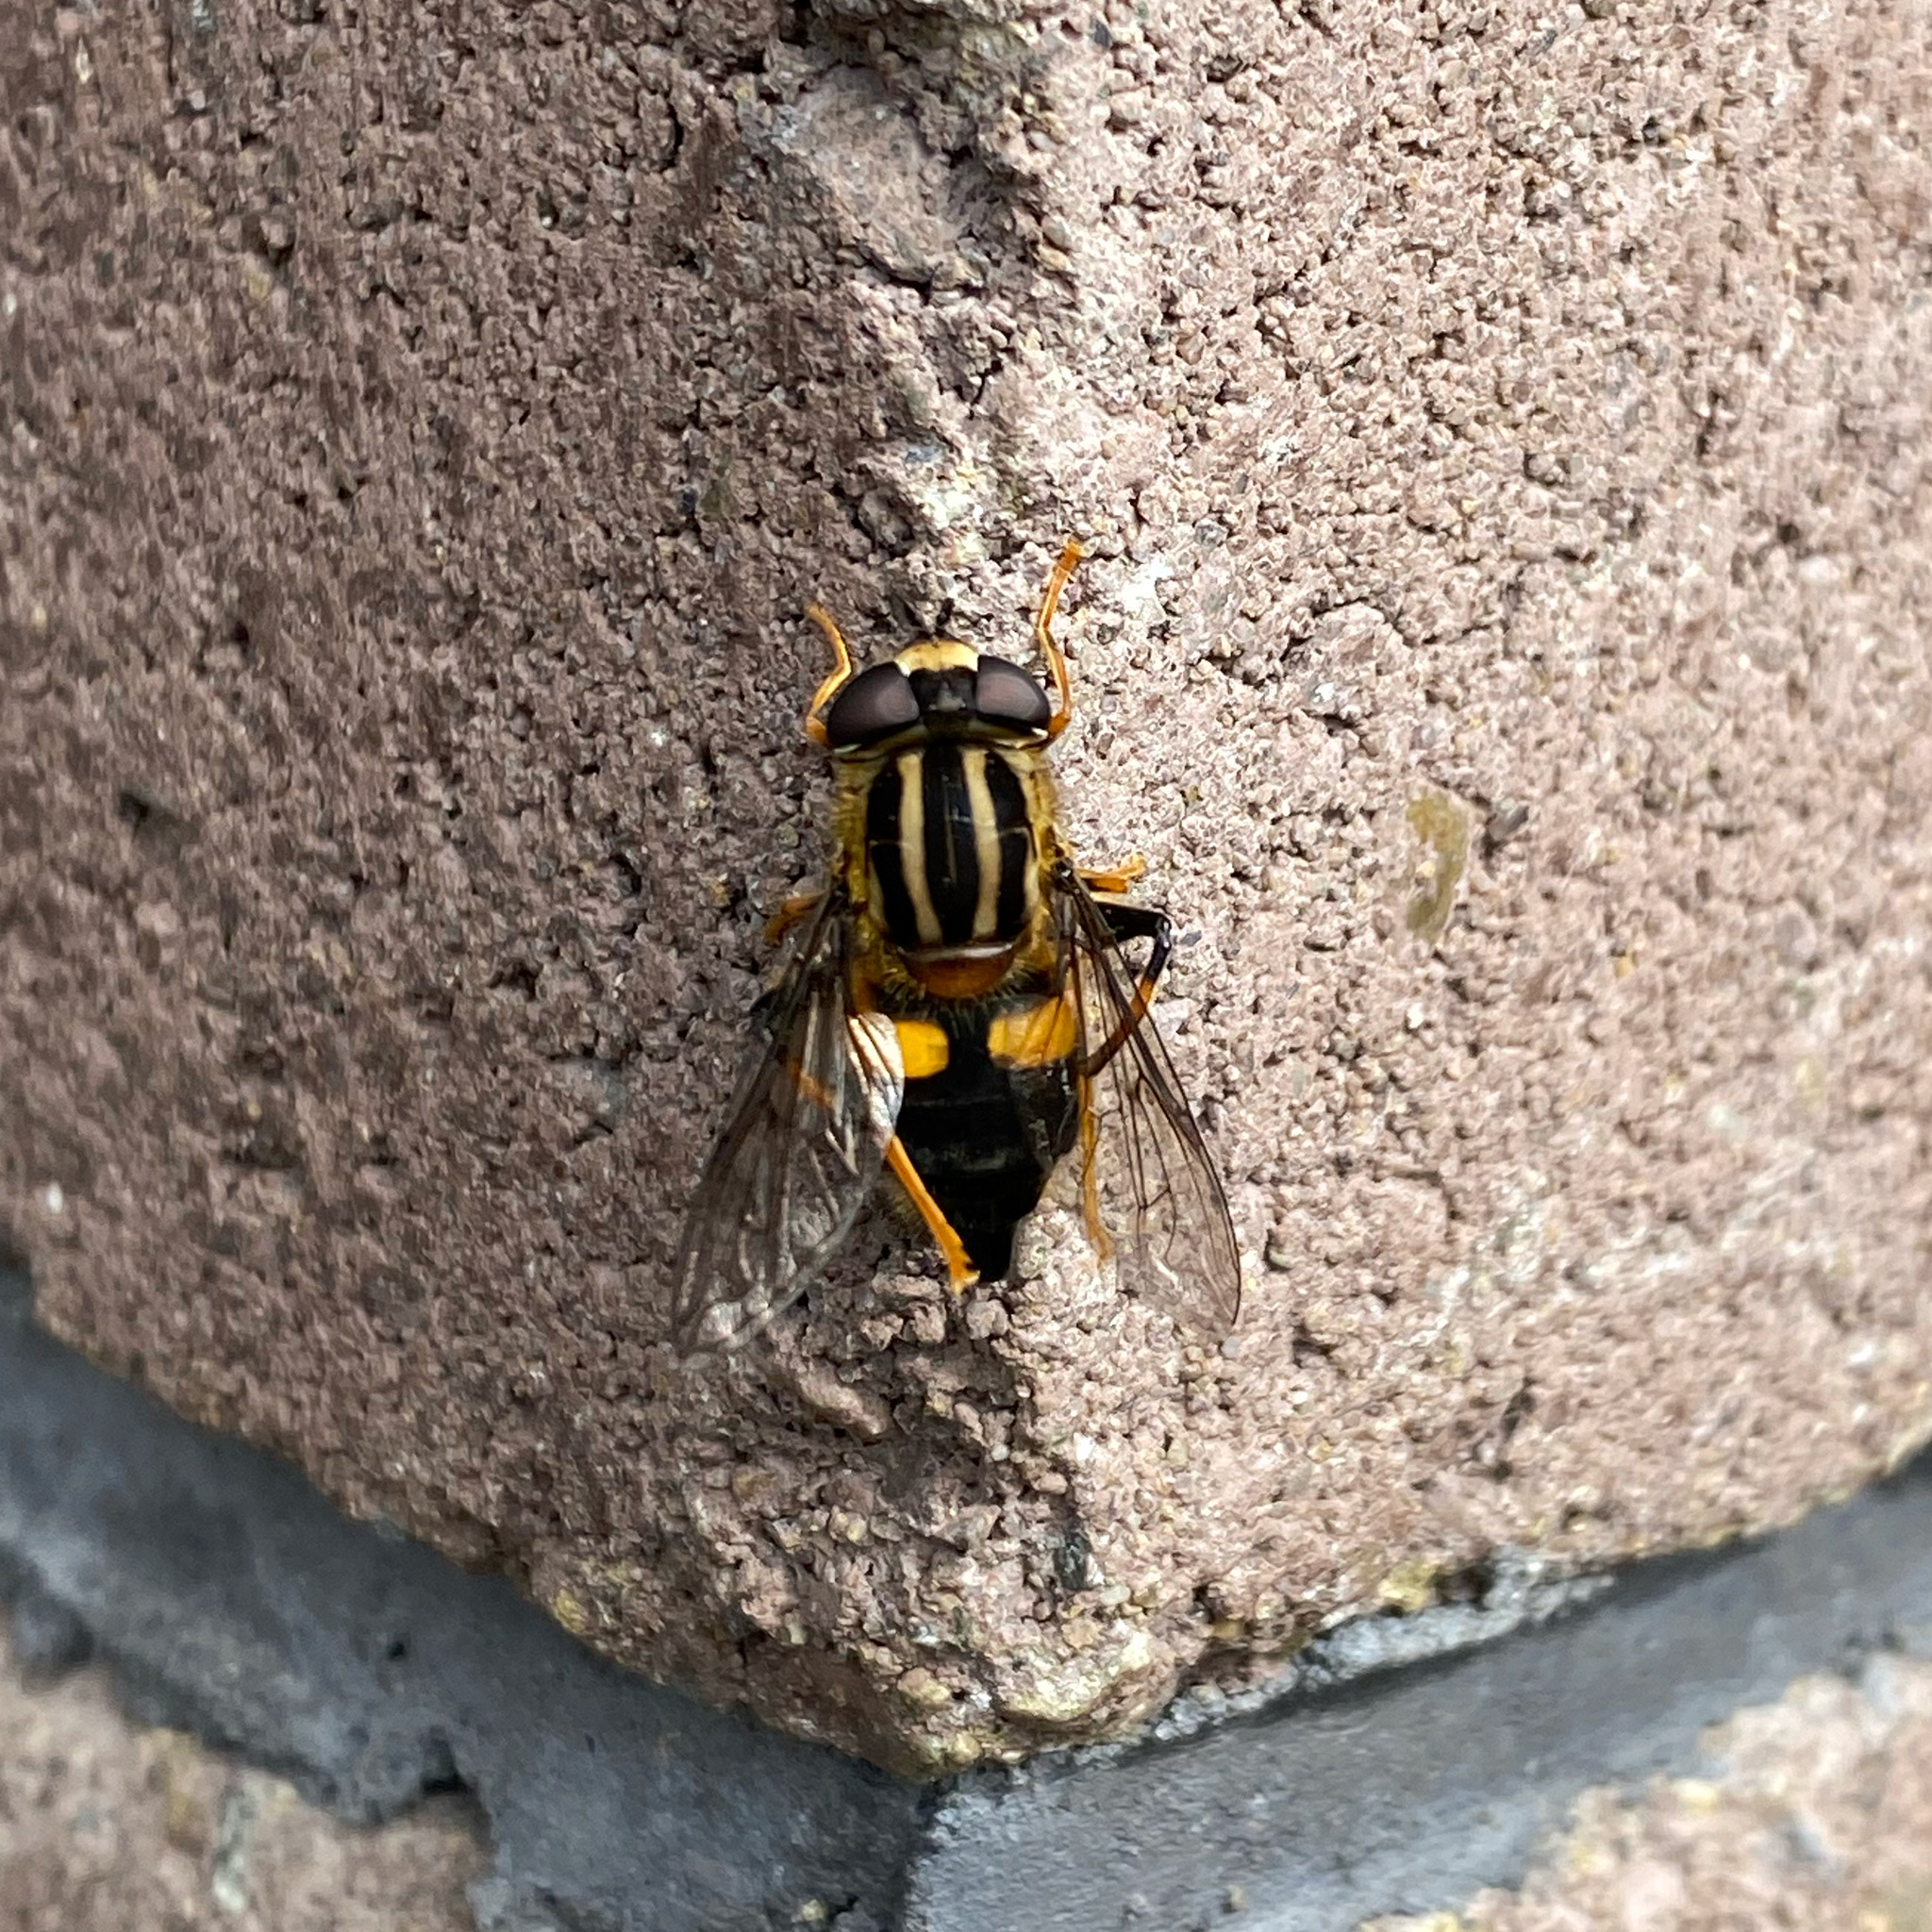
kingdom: Animalia
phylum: Arthropoda
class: Insecta
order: Diptera
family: Syrphidae
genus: Helophilus
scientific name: Helophilus antipodus
